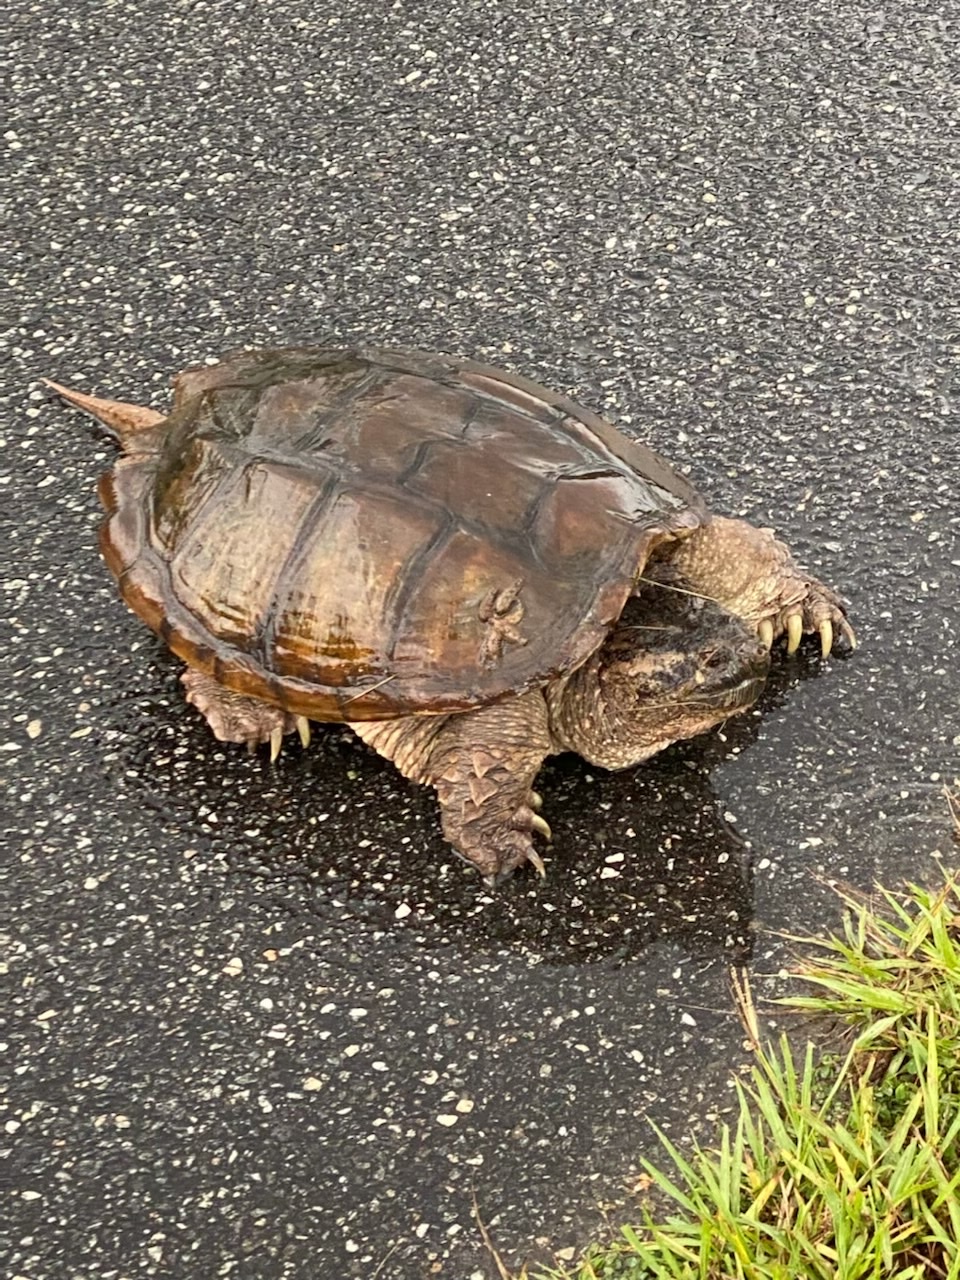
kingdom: Animalia
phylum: Chordata
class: Testudines
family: Chelydridae
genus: Chelydra
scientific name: Chelydra serpentina
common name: Common snapping turtle
